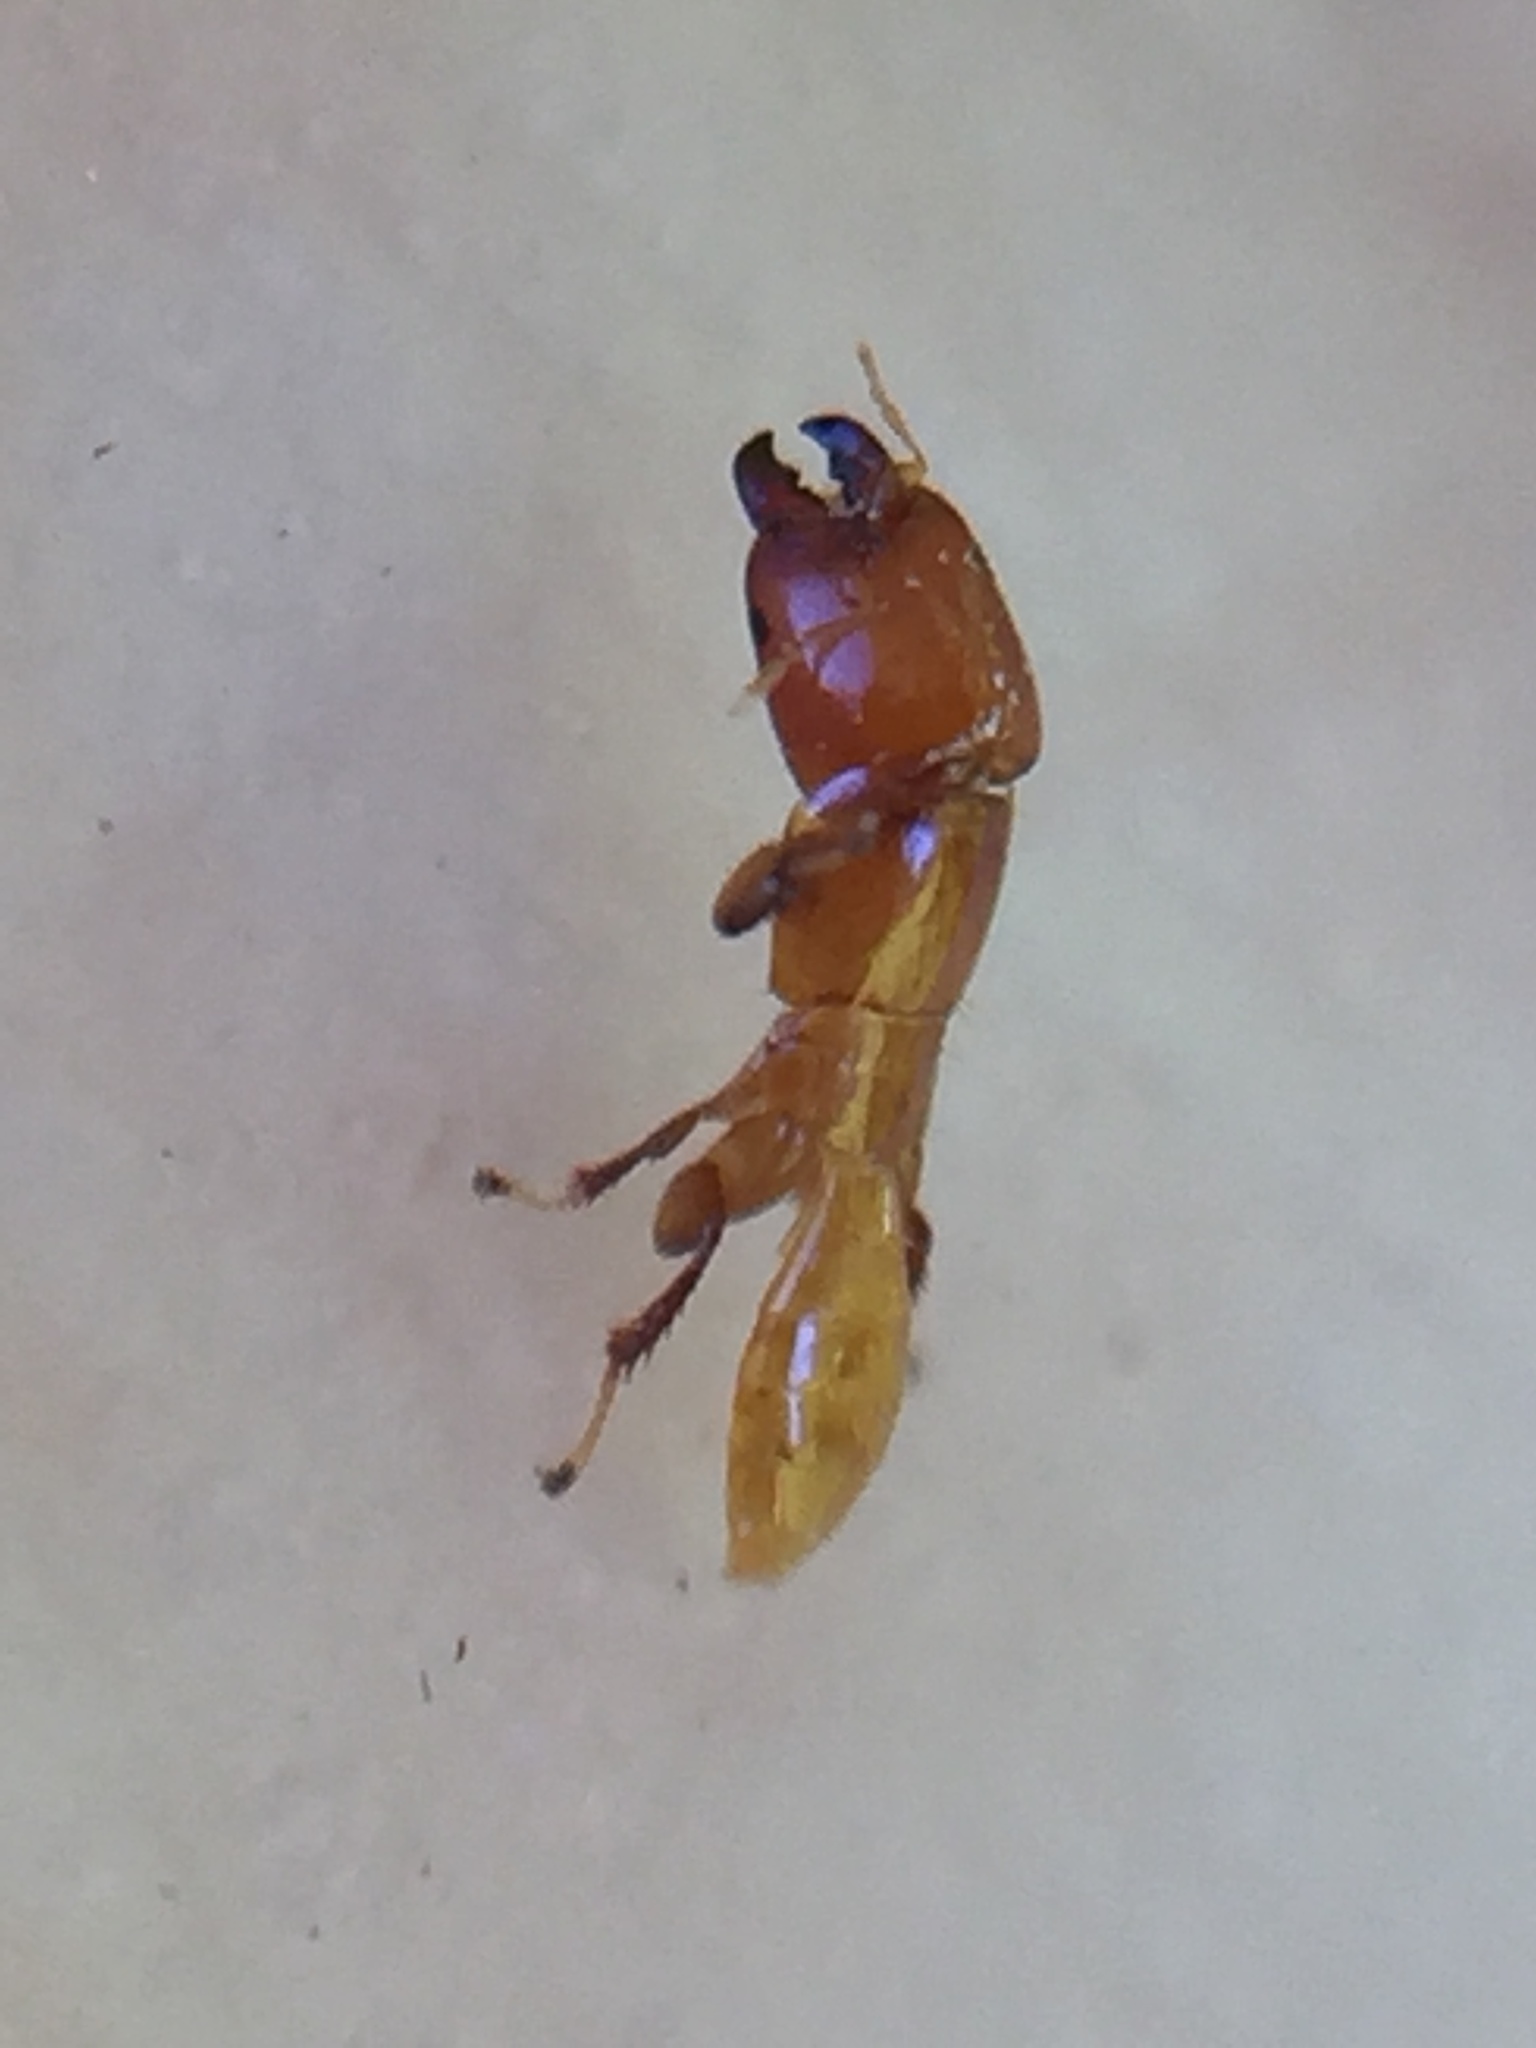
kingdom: Animalia
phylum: Arthropoda
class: Insecta
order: Hymenoptera
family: Agaonidae
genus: Sycoscapter
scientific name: Sycoscapter australis
